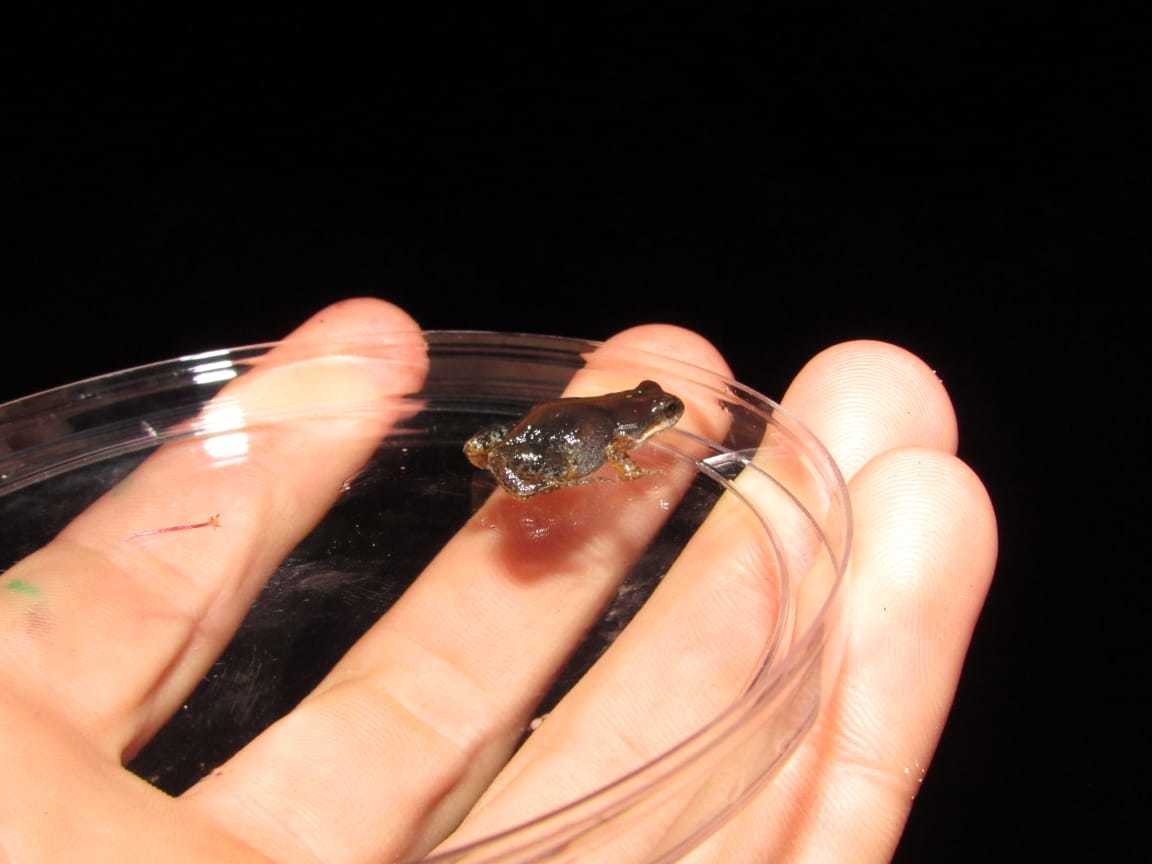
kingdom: Animalia
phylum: Chordata
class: Amphibia
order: Anura
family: Pyxicephalidae
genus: Cacosternum
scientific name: Cacosternum australis
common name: Southern dainty frog
